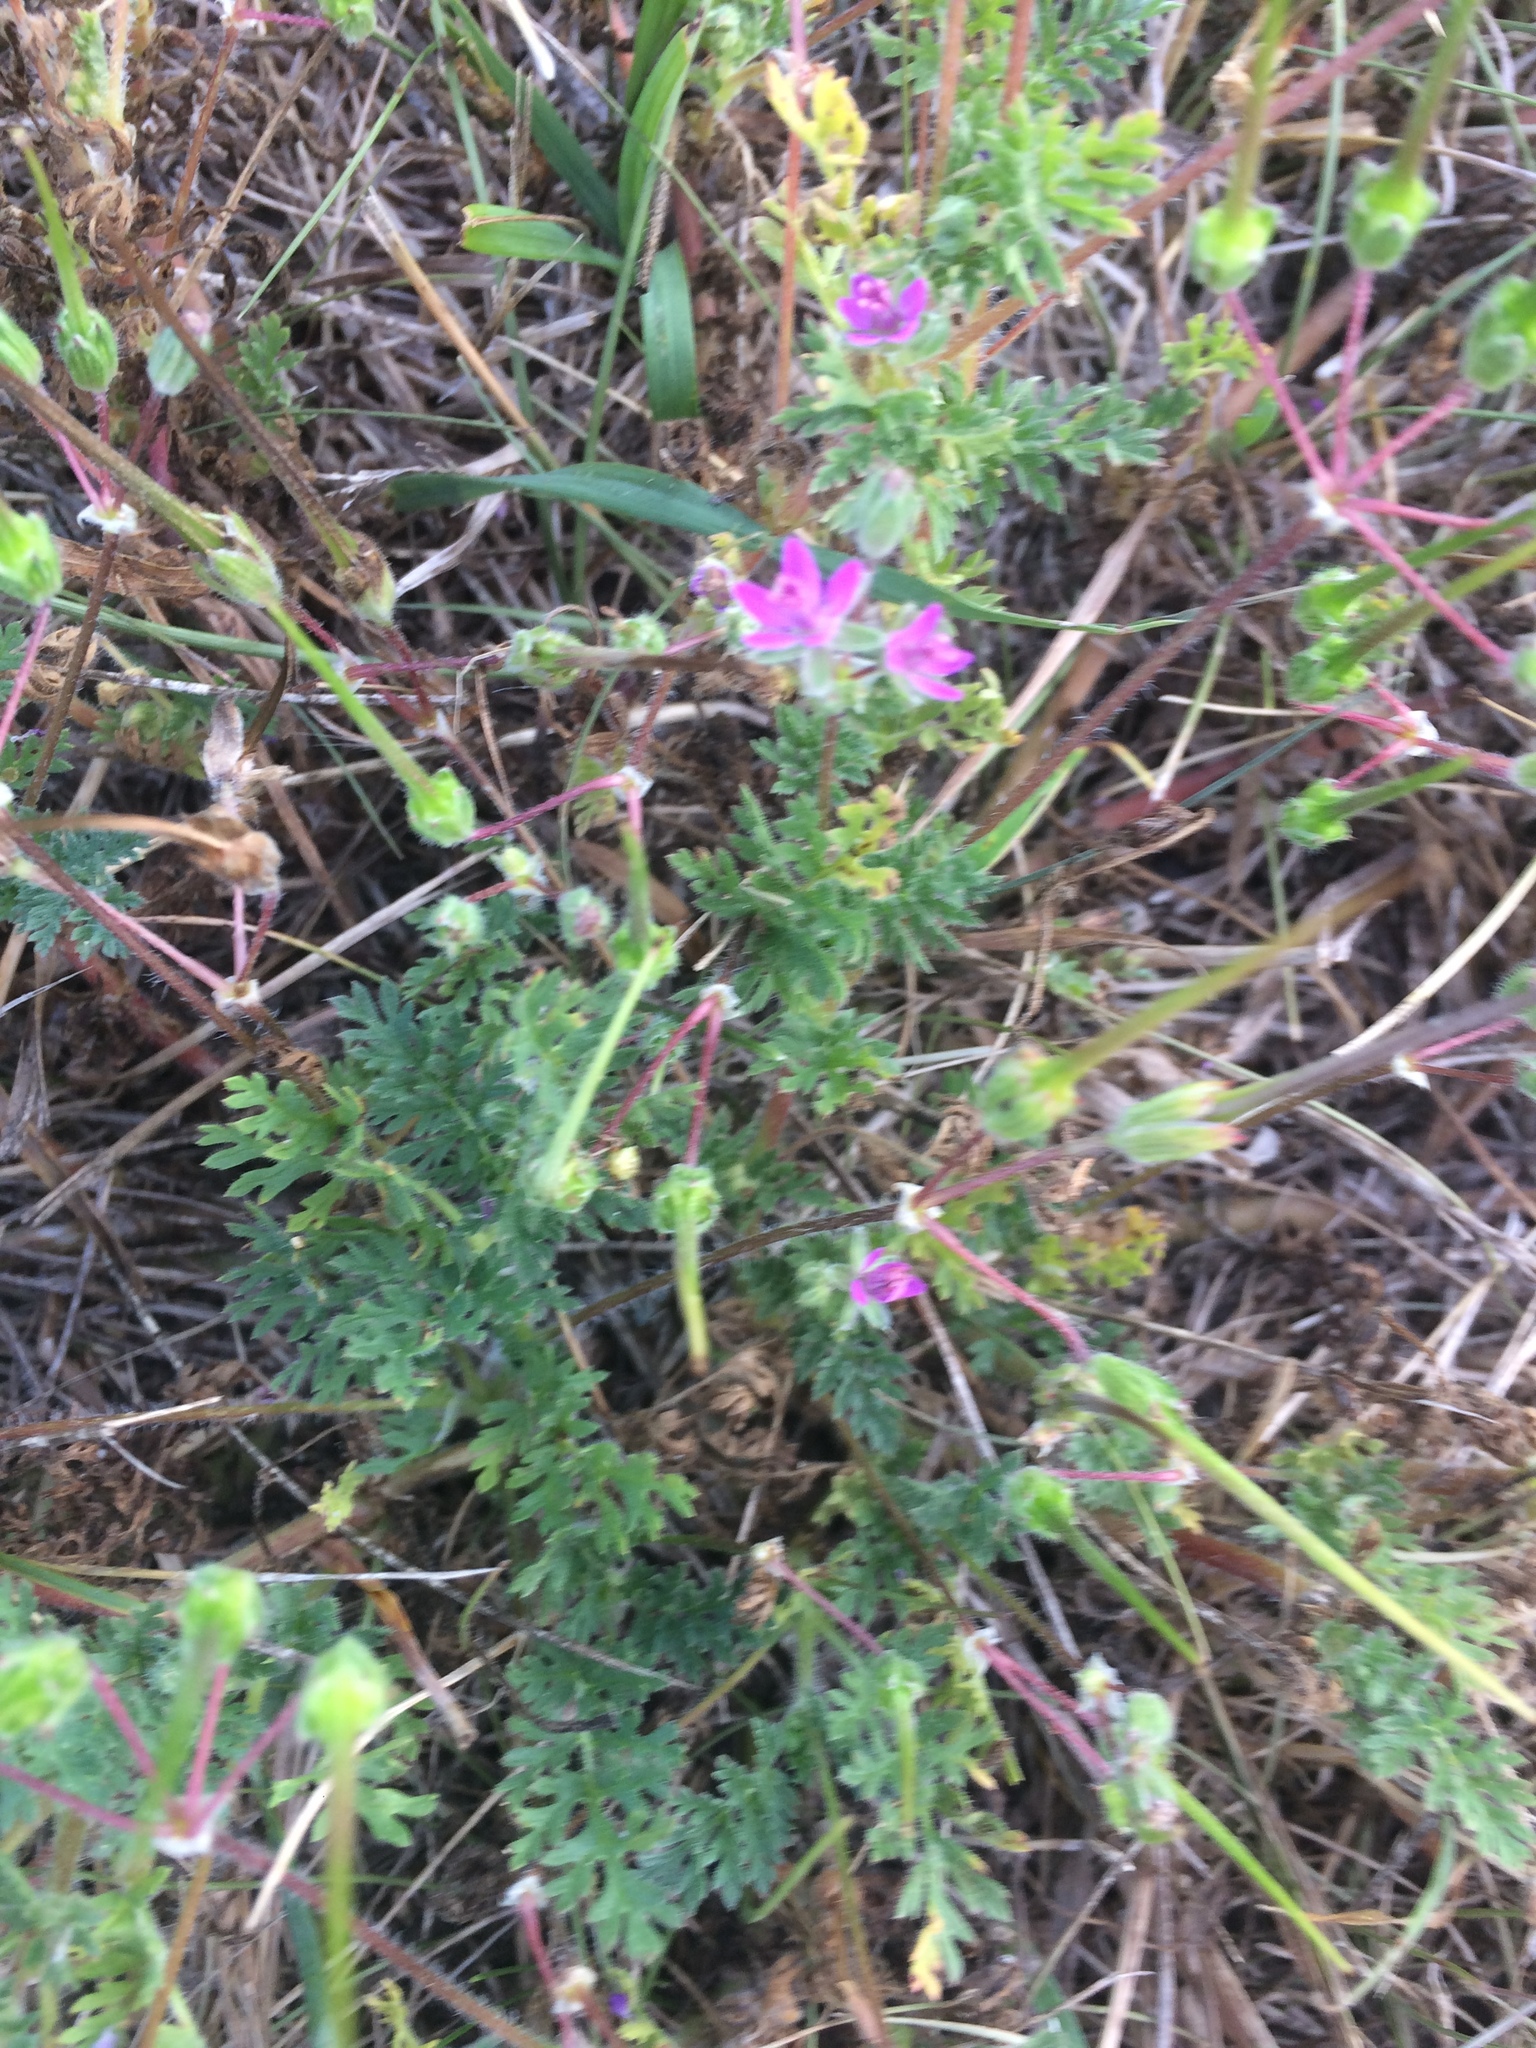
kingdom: Plantae
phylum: Tracheophyta
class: Magnoliopsida
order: Geraniales
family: Geraniaceae
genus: Erodium
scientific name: Erodium cicutarium
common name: Common stork's-bill
